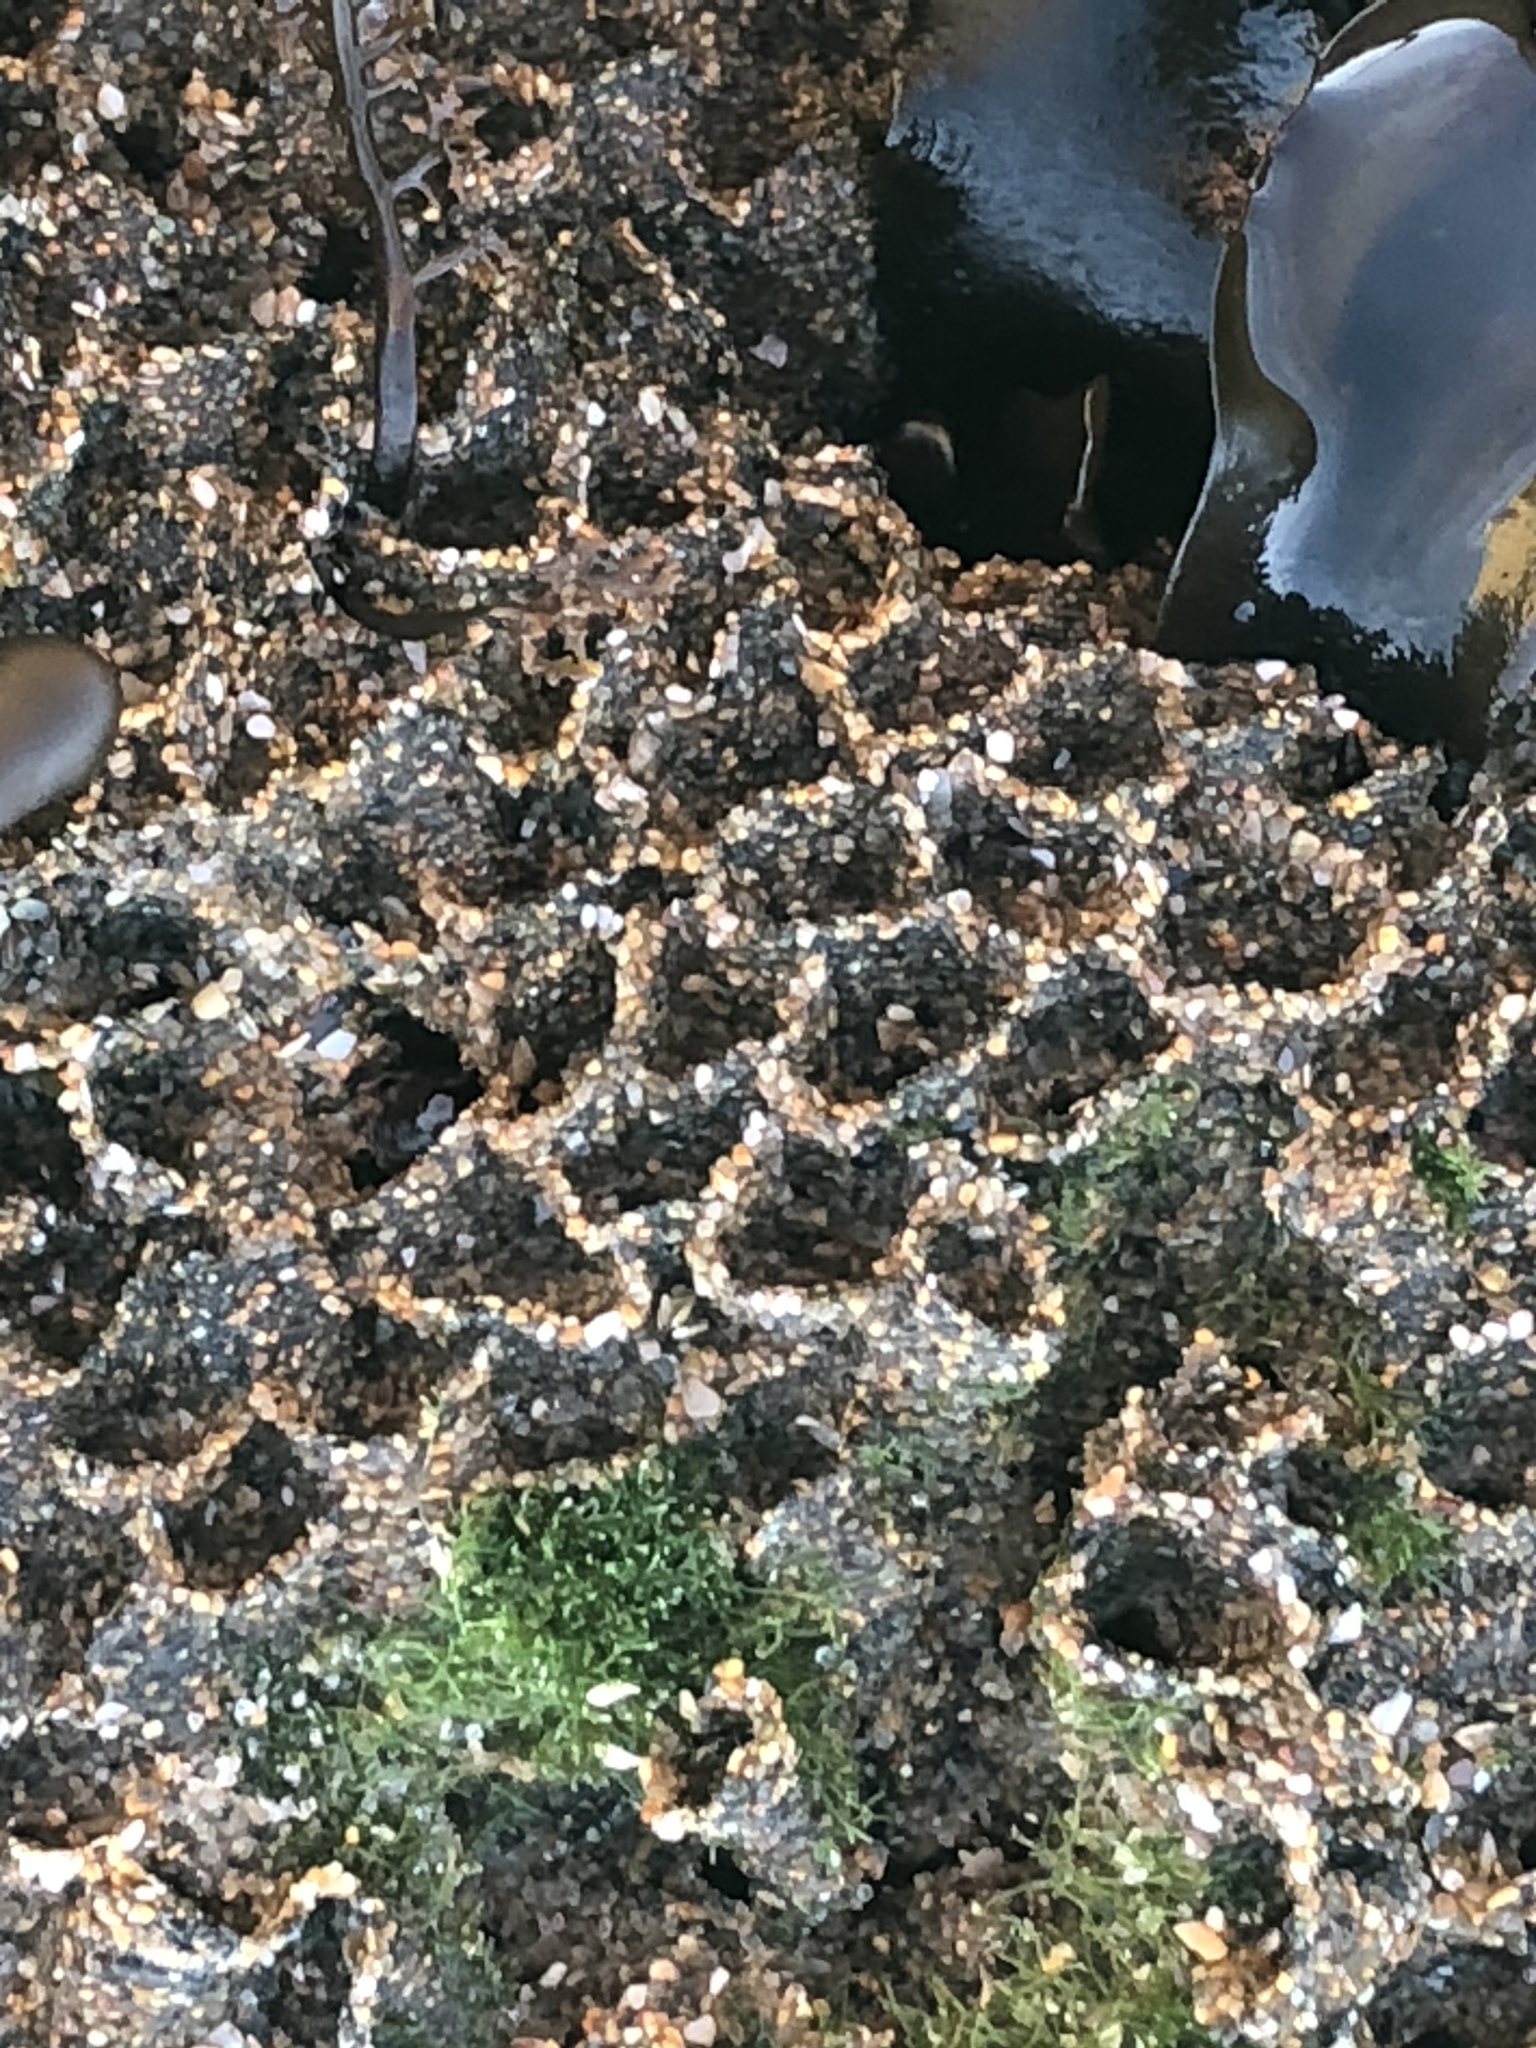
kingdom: Animalia
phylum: Annelida
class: Polychaeta
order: Sabellida
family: Sabellariidae
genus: Phragmatopoma
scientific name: Phragmatopoma californica
